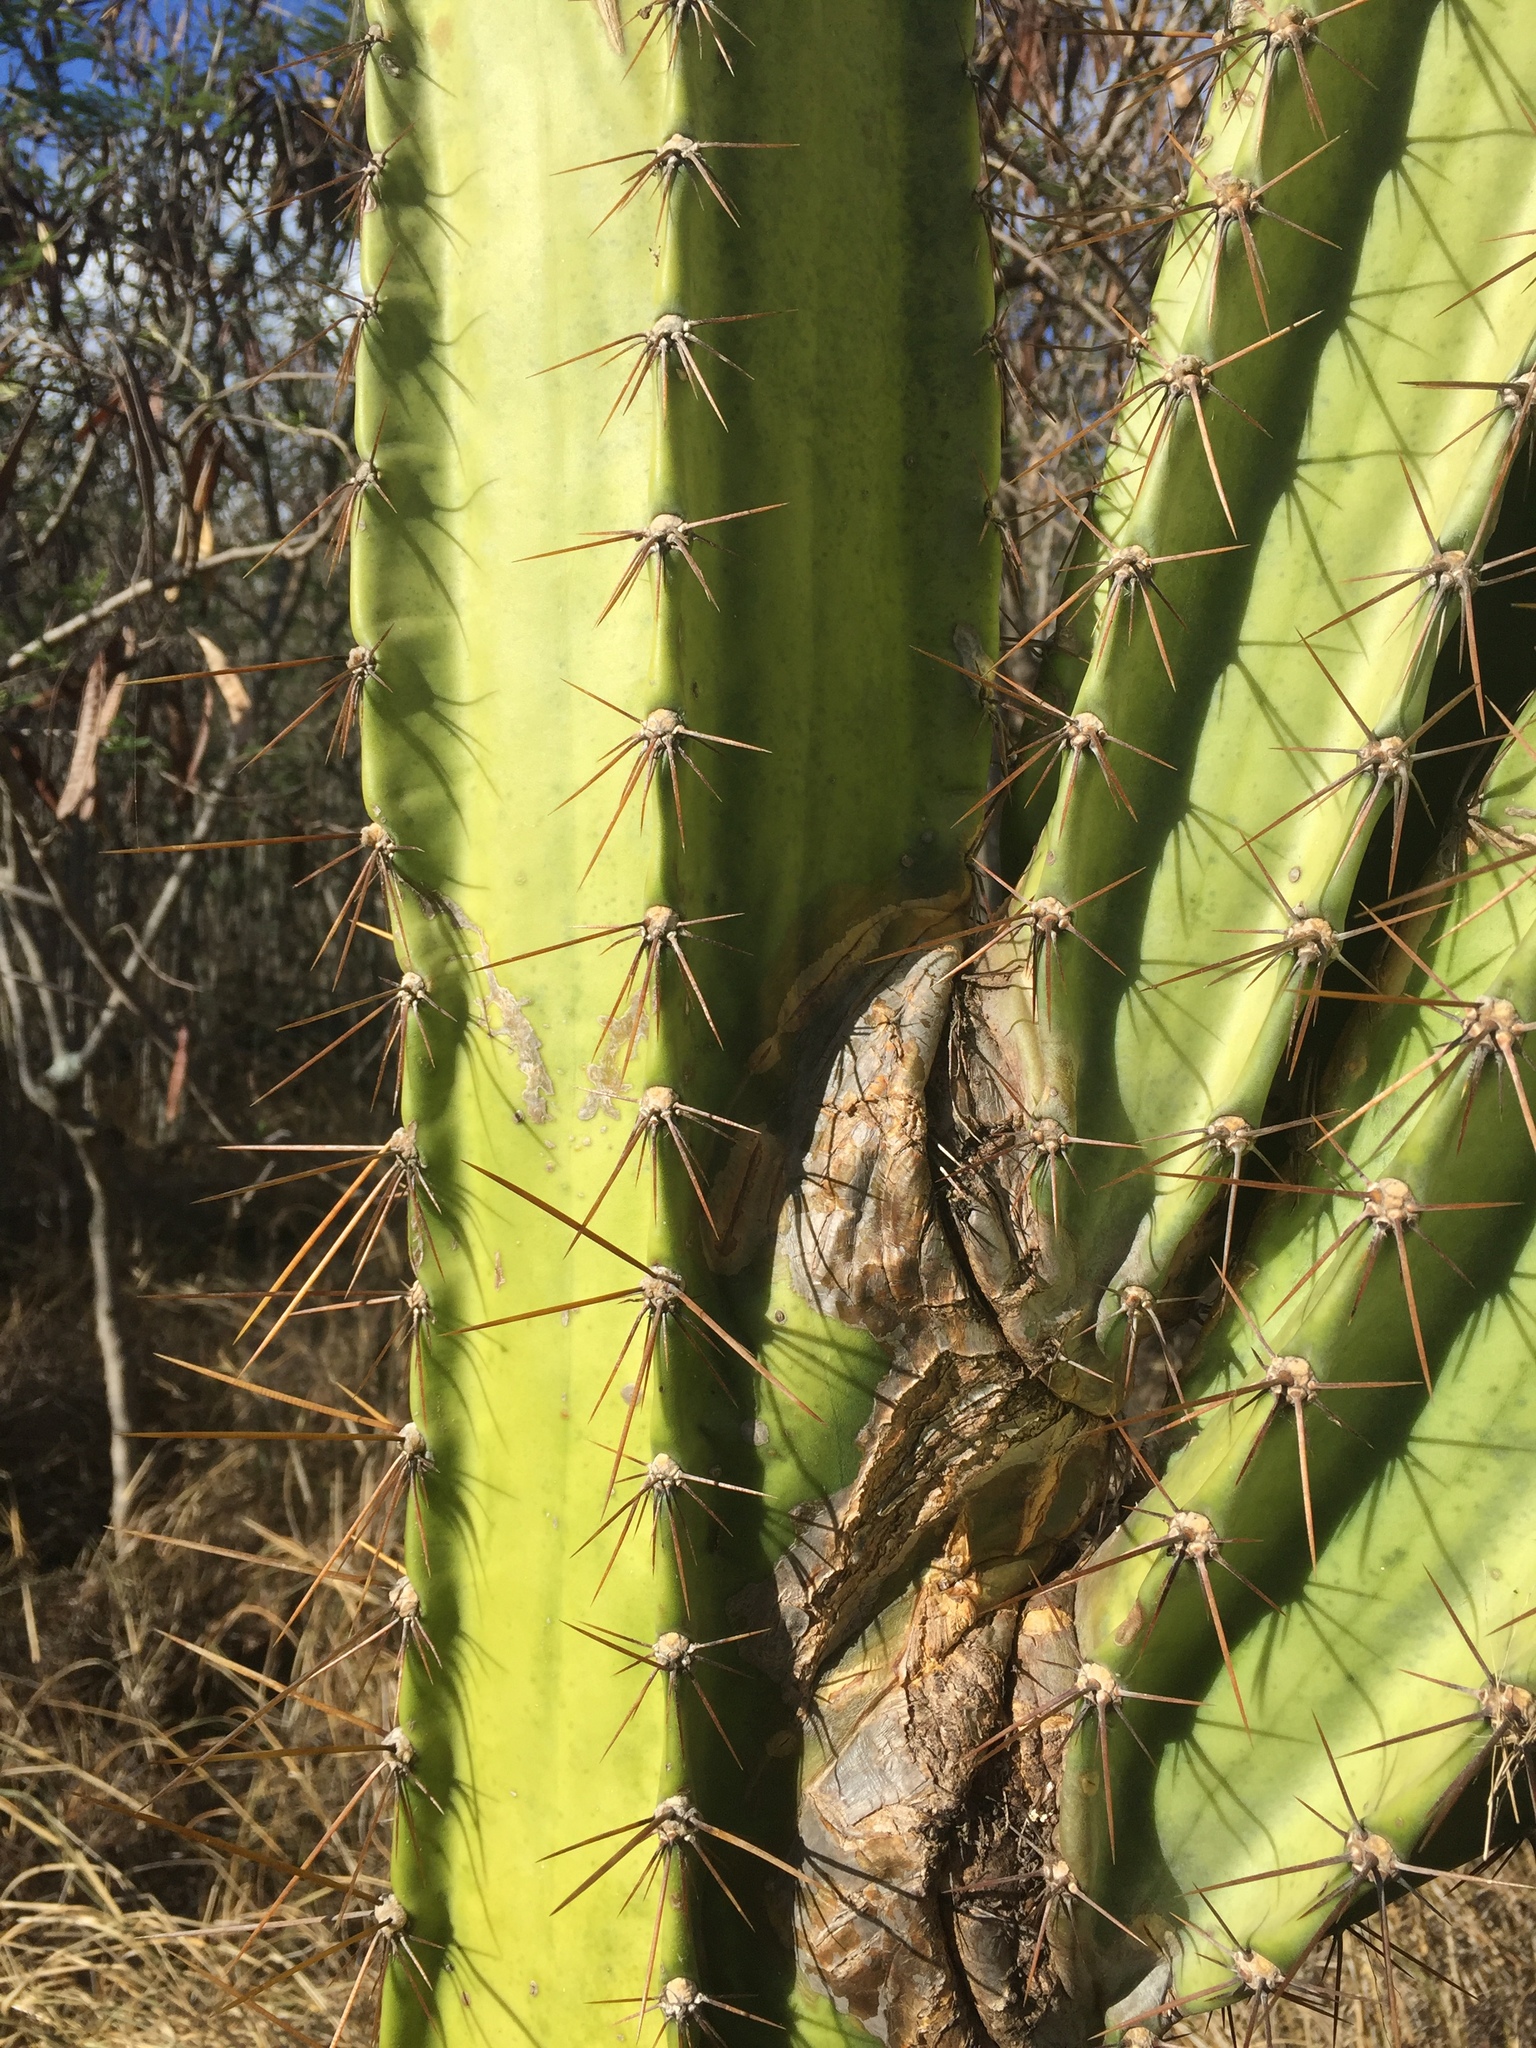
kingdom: Plantae
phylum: Tracheophyta
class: Magnoliopsida
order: Caryophyllales
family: Cactaceae
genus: Cereus
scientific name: Cereus hildmannianus
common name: Hedge cactus
